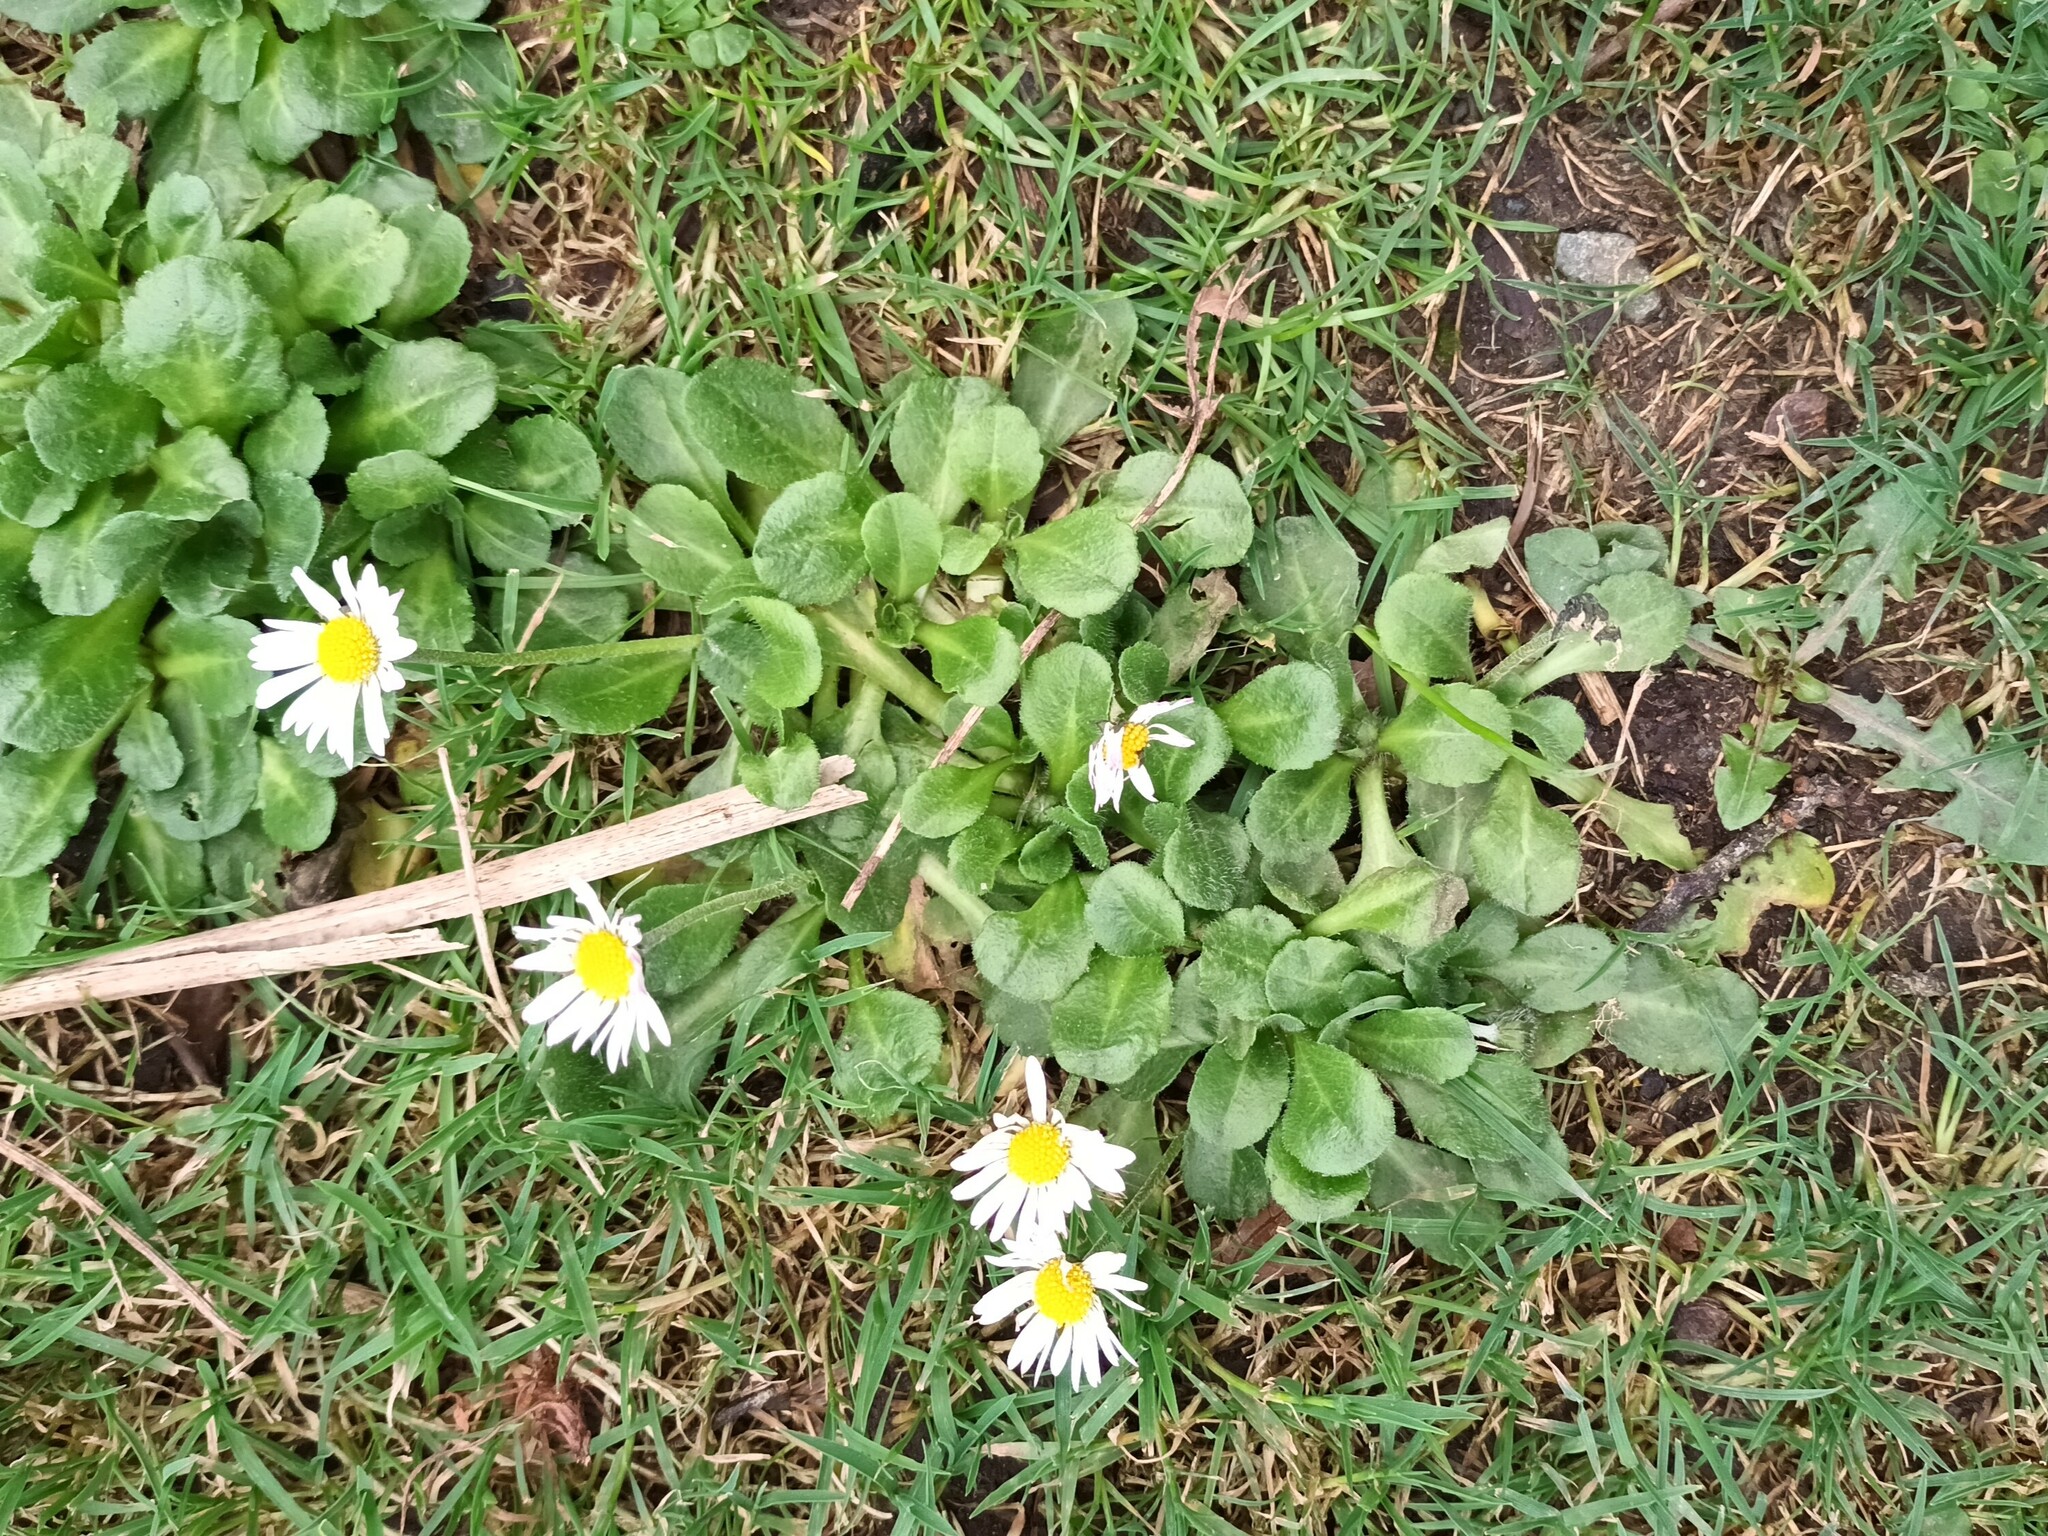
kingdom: Plantae
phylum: Tracheophyta
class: Magnoliopsida
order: Asterales
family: Asteraceae
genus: Bellis
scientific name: Bellis perennis
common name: Lawndaisy
